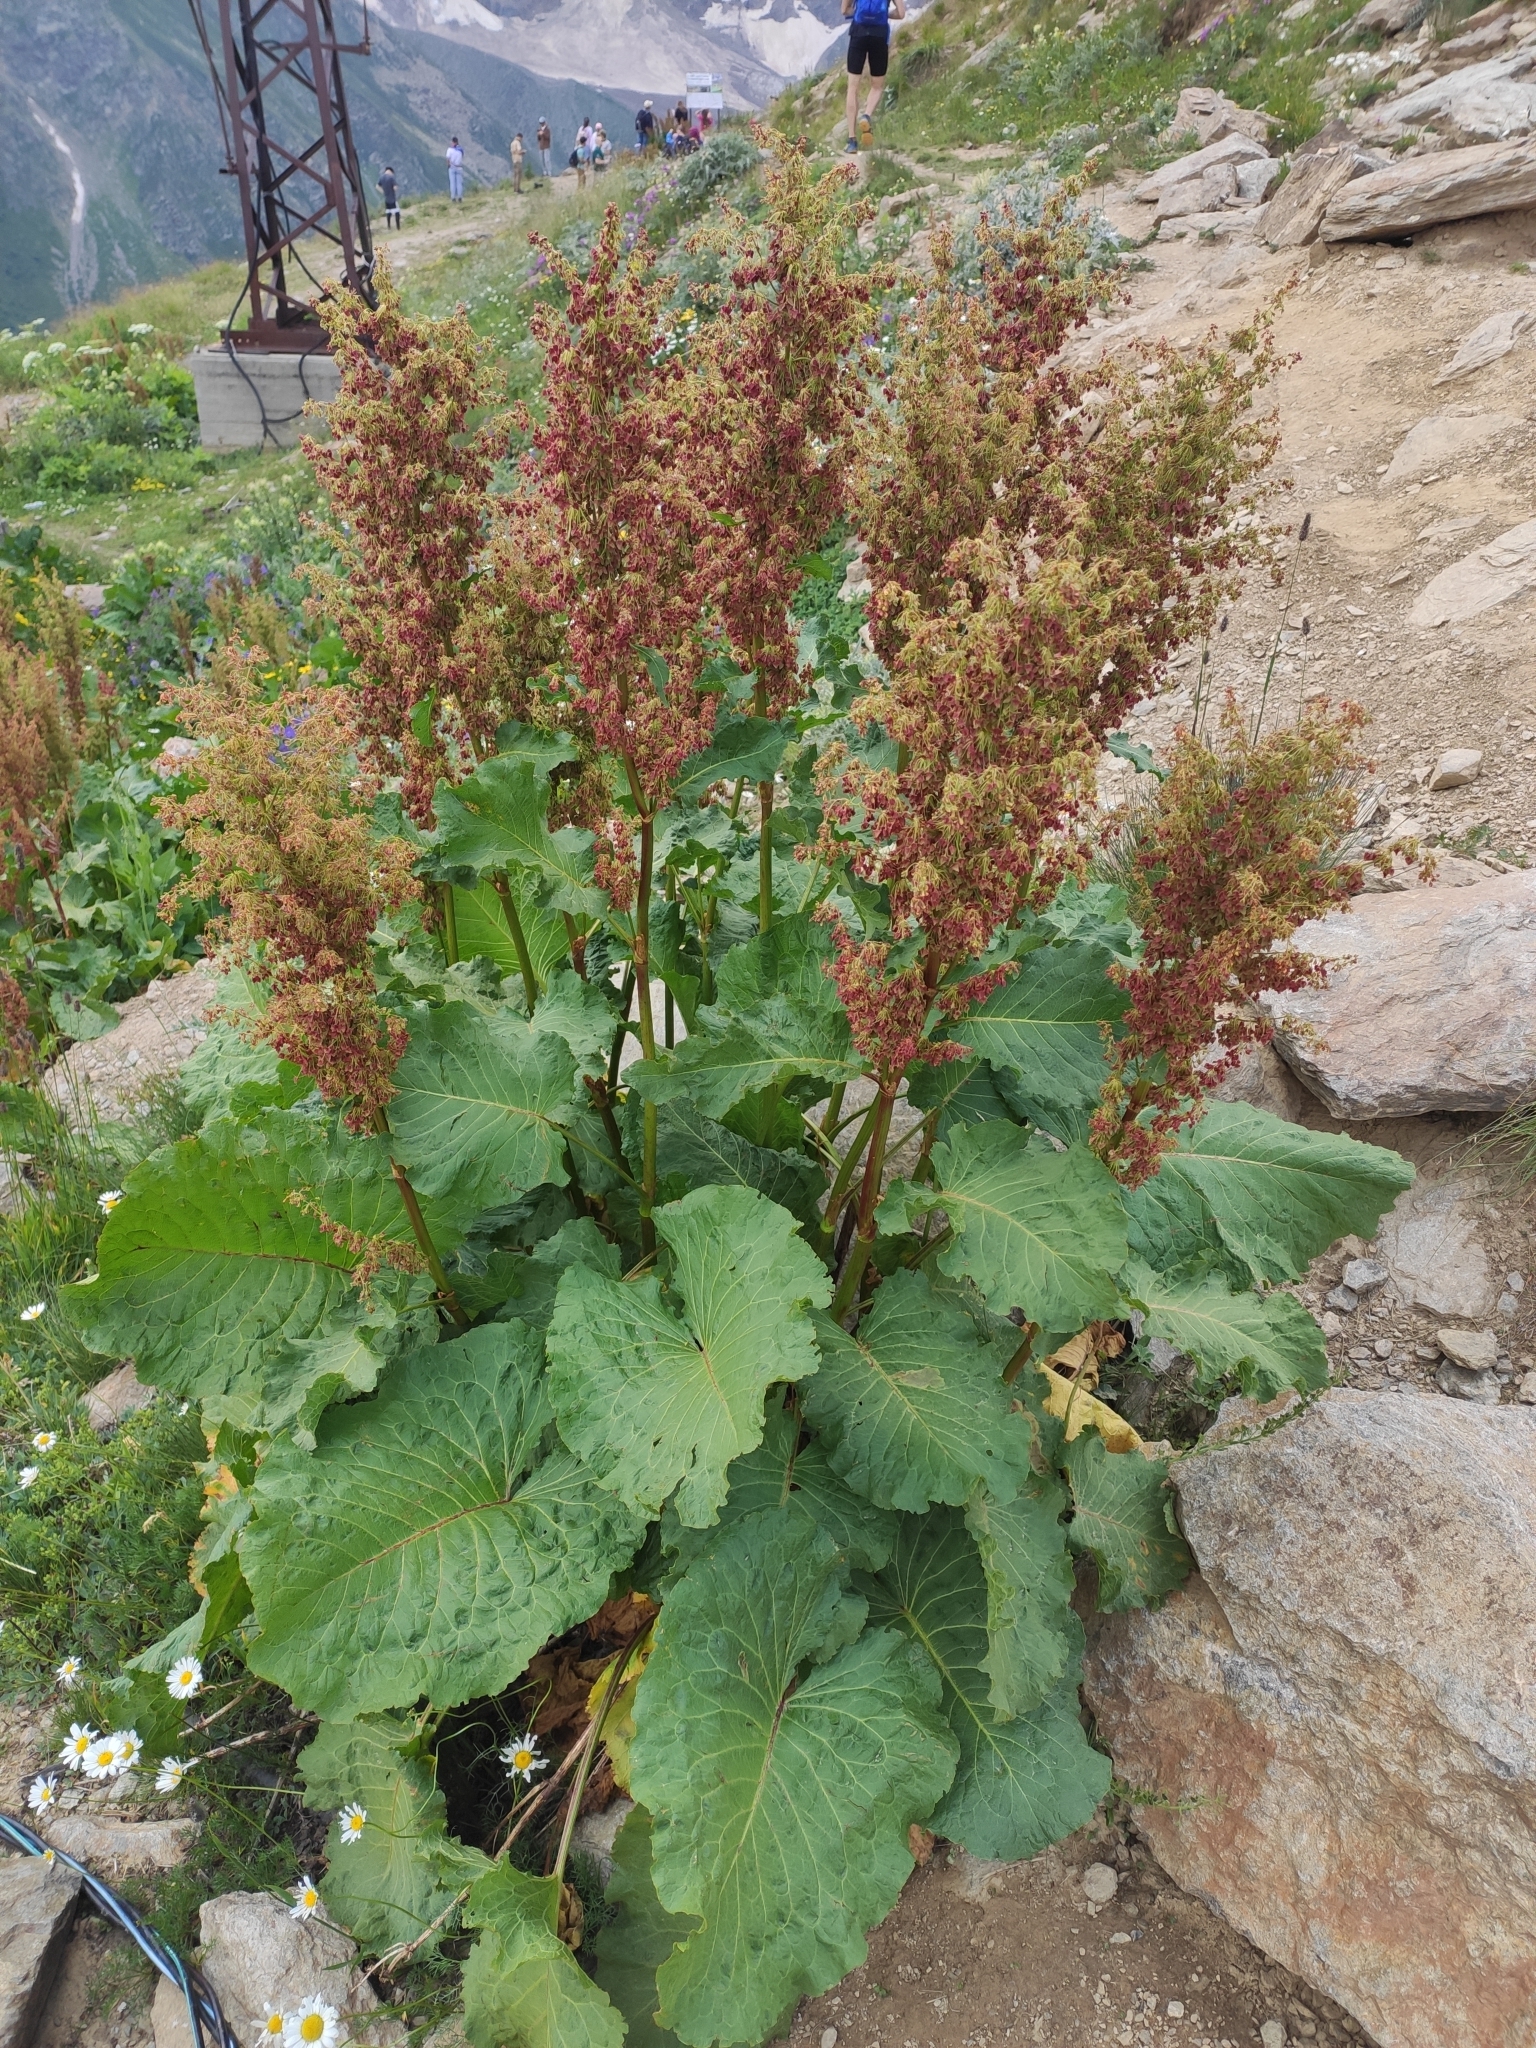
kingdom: Plantae
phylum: Tracheophyta
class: Magnoliopsida
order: Caryophyllales
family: Polygonaceae
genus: Rumex
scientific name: Rumex alpinus
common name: Alpine dock
